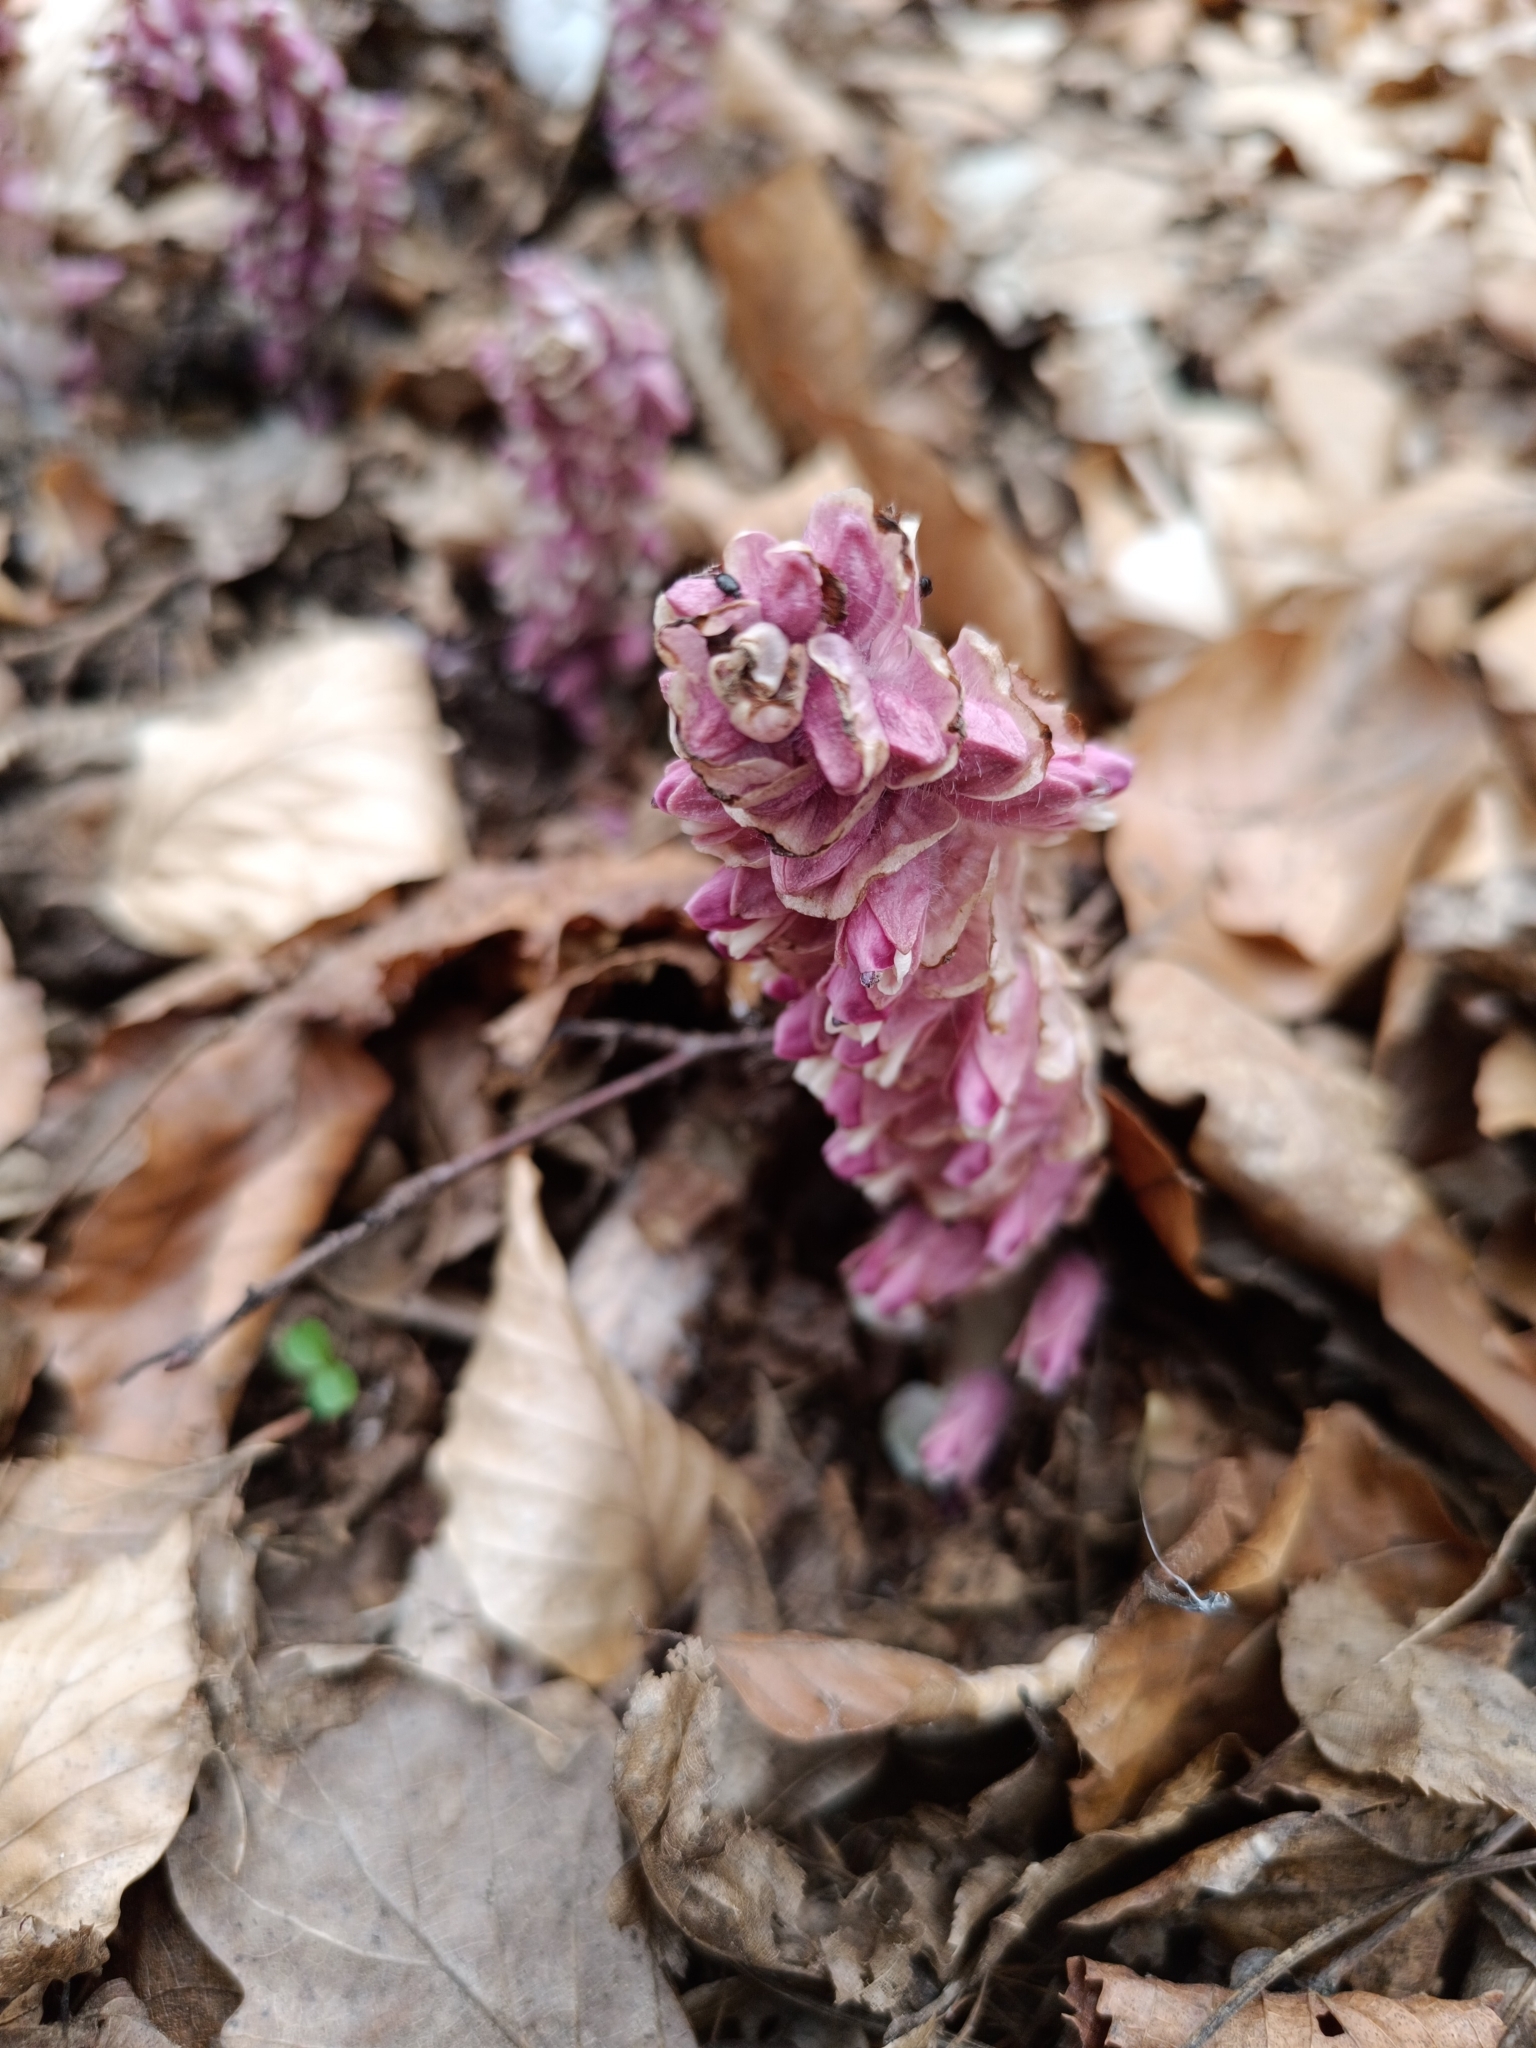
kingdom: Plantae
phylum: Tracheophyta
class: Magnoliopsida
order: Lamiales
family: Orobanchaceae
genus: Lathraea
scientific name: Lathraea squamaria
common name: Toothwort
